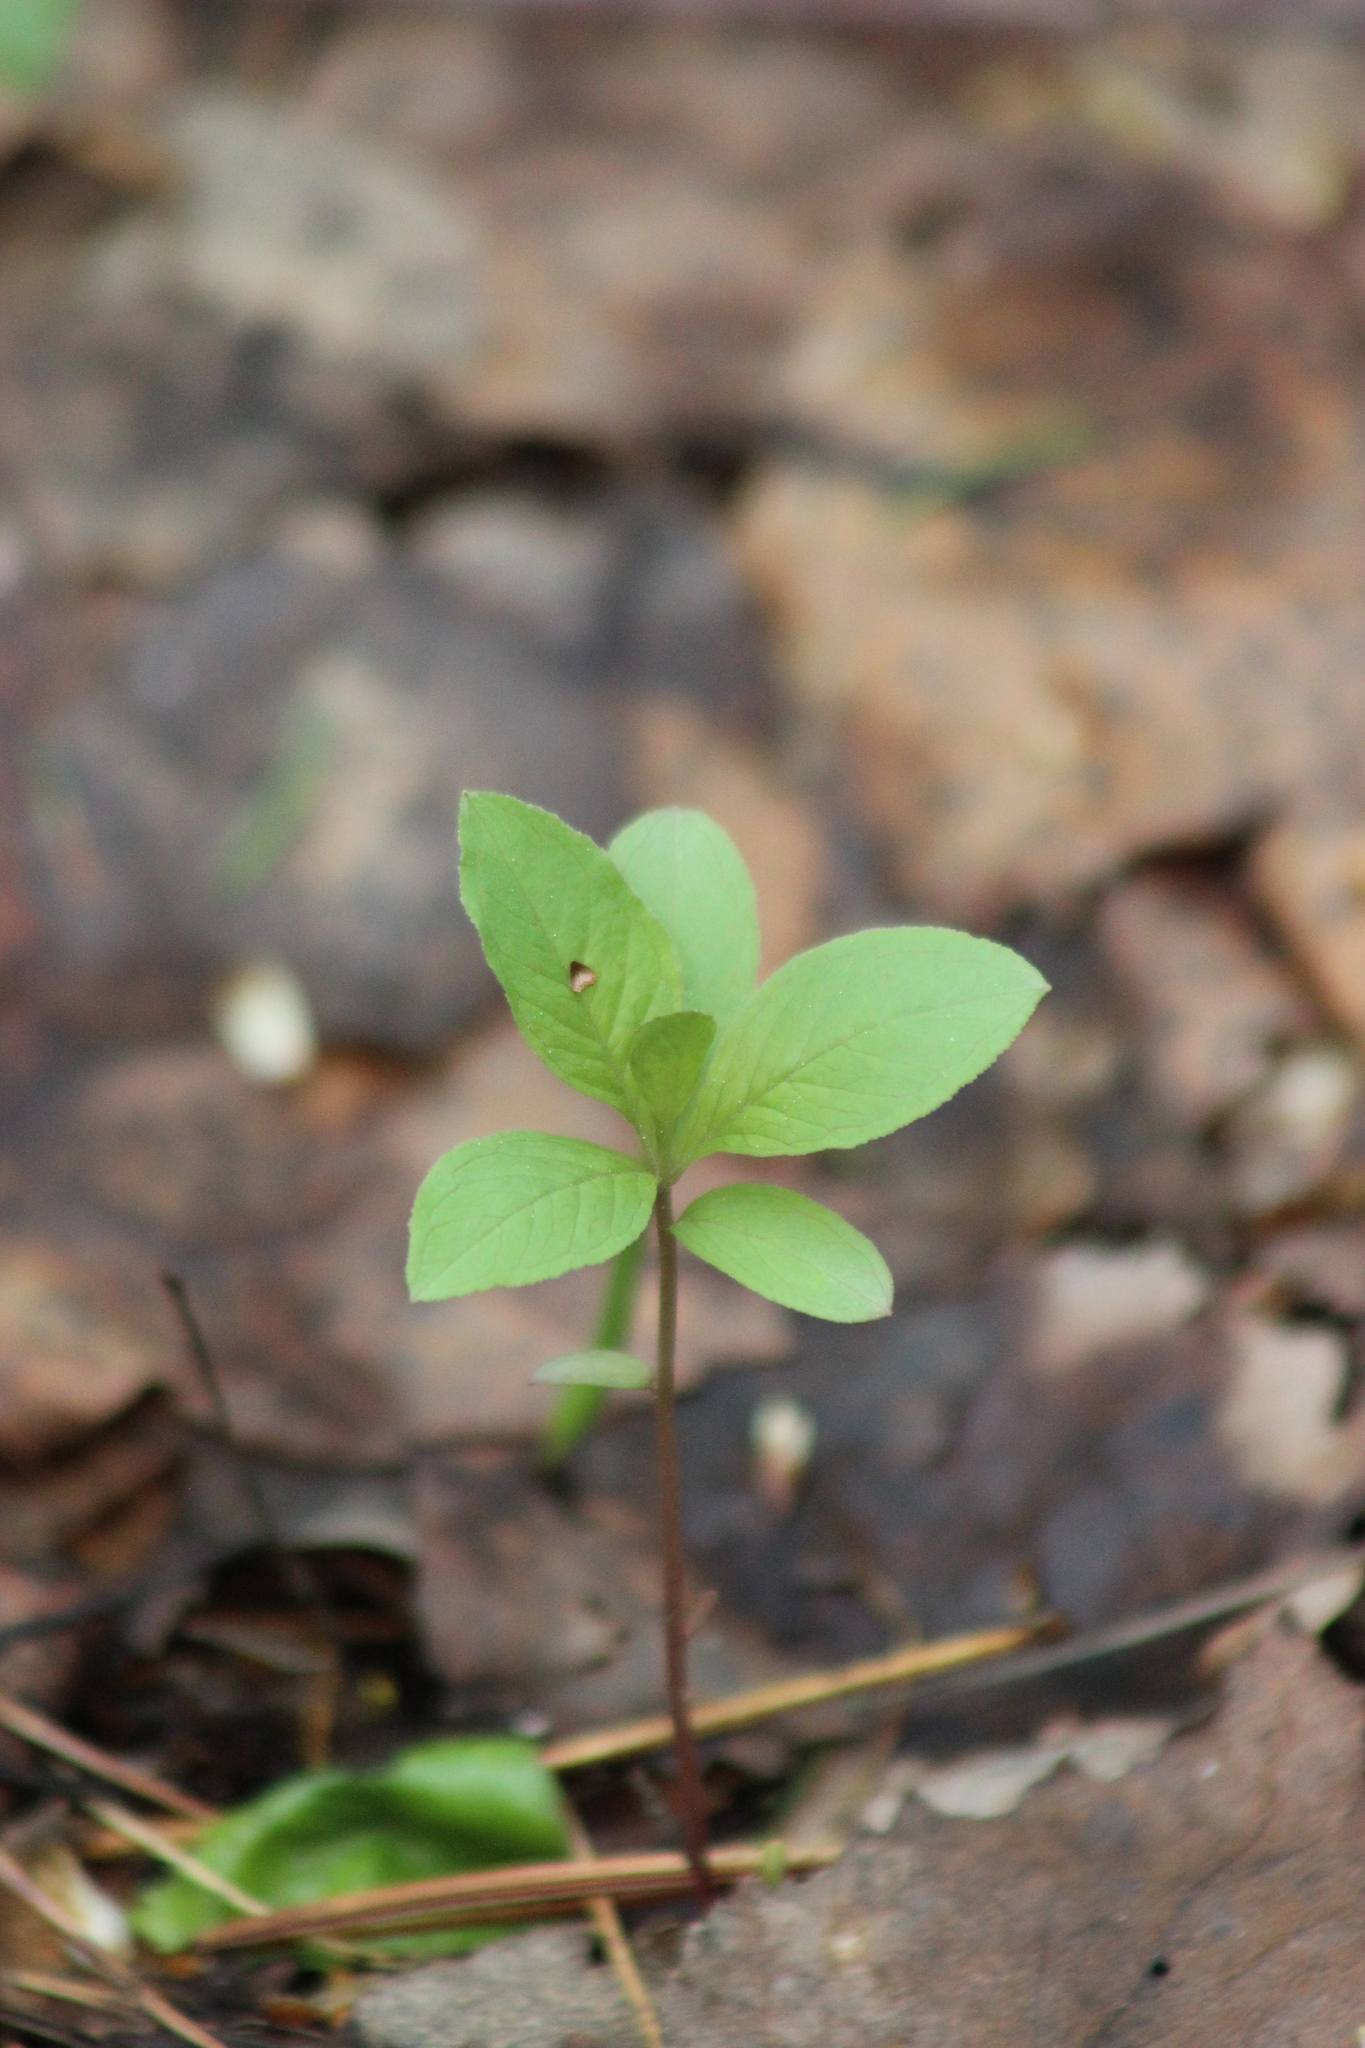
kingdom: Plantae
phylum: Tracheophyta
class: Magnoliopsida
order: Ericales
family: Primulaceae
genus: Lysimachia
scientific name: Lysimachia europaea
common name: Arctic starflower
